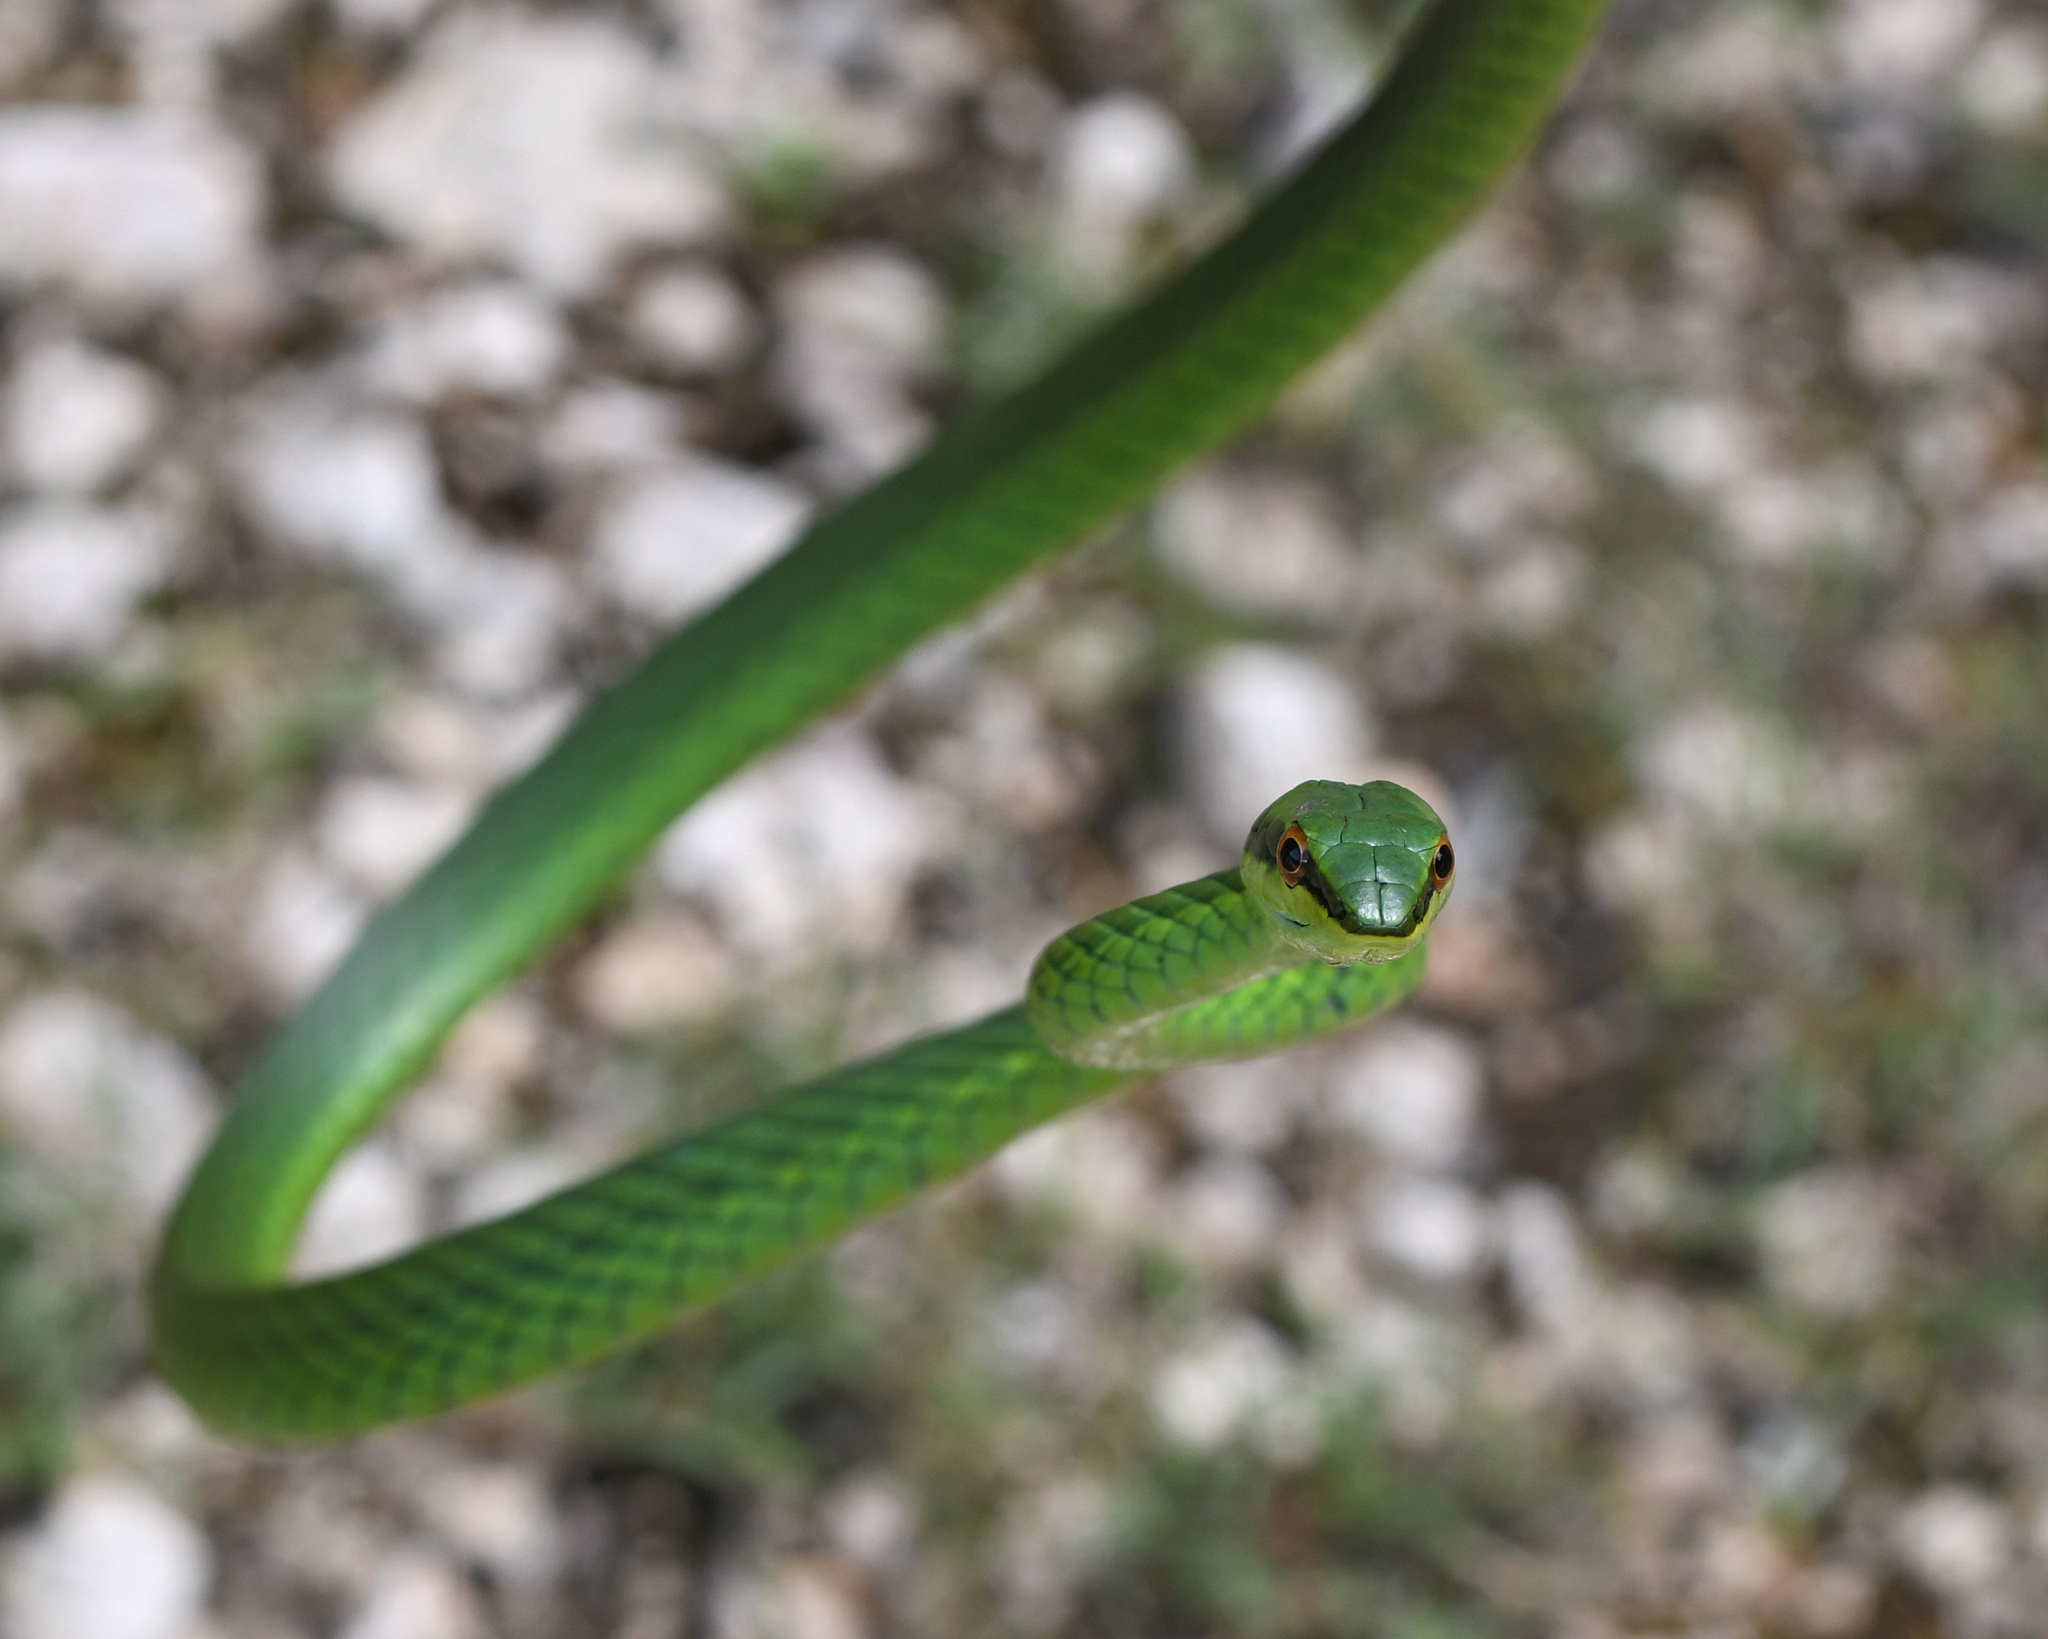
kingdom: Animalia
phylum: Chordata
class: Squamata
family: Colubridae
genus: Uromacer
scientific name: Uromacer catesbyi
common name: Catesby's pointed snake
